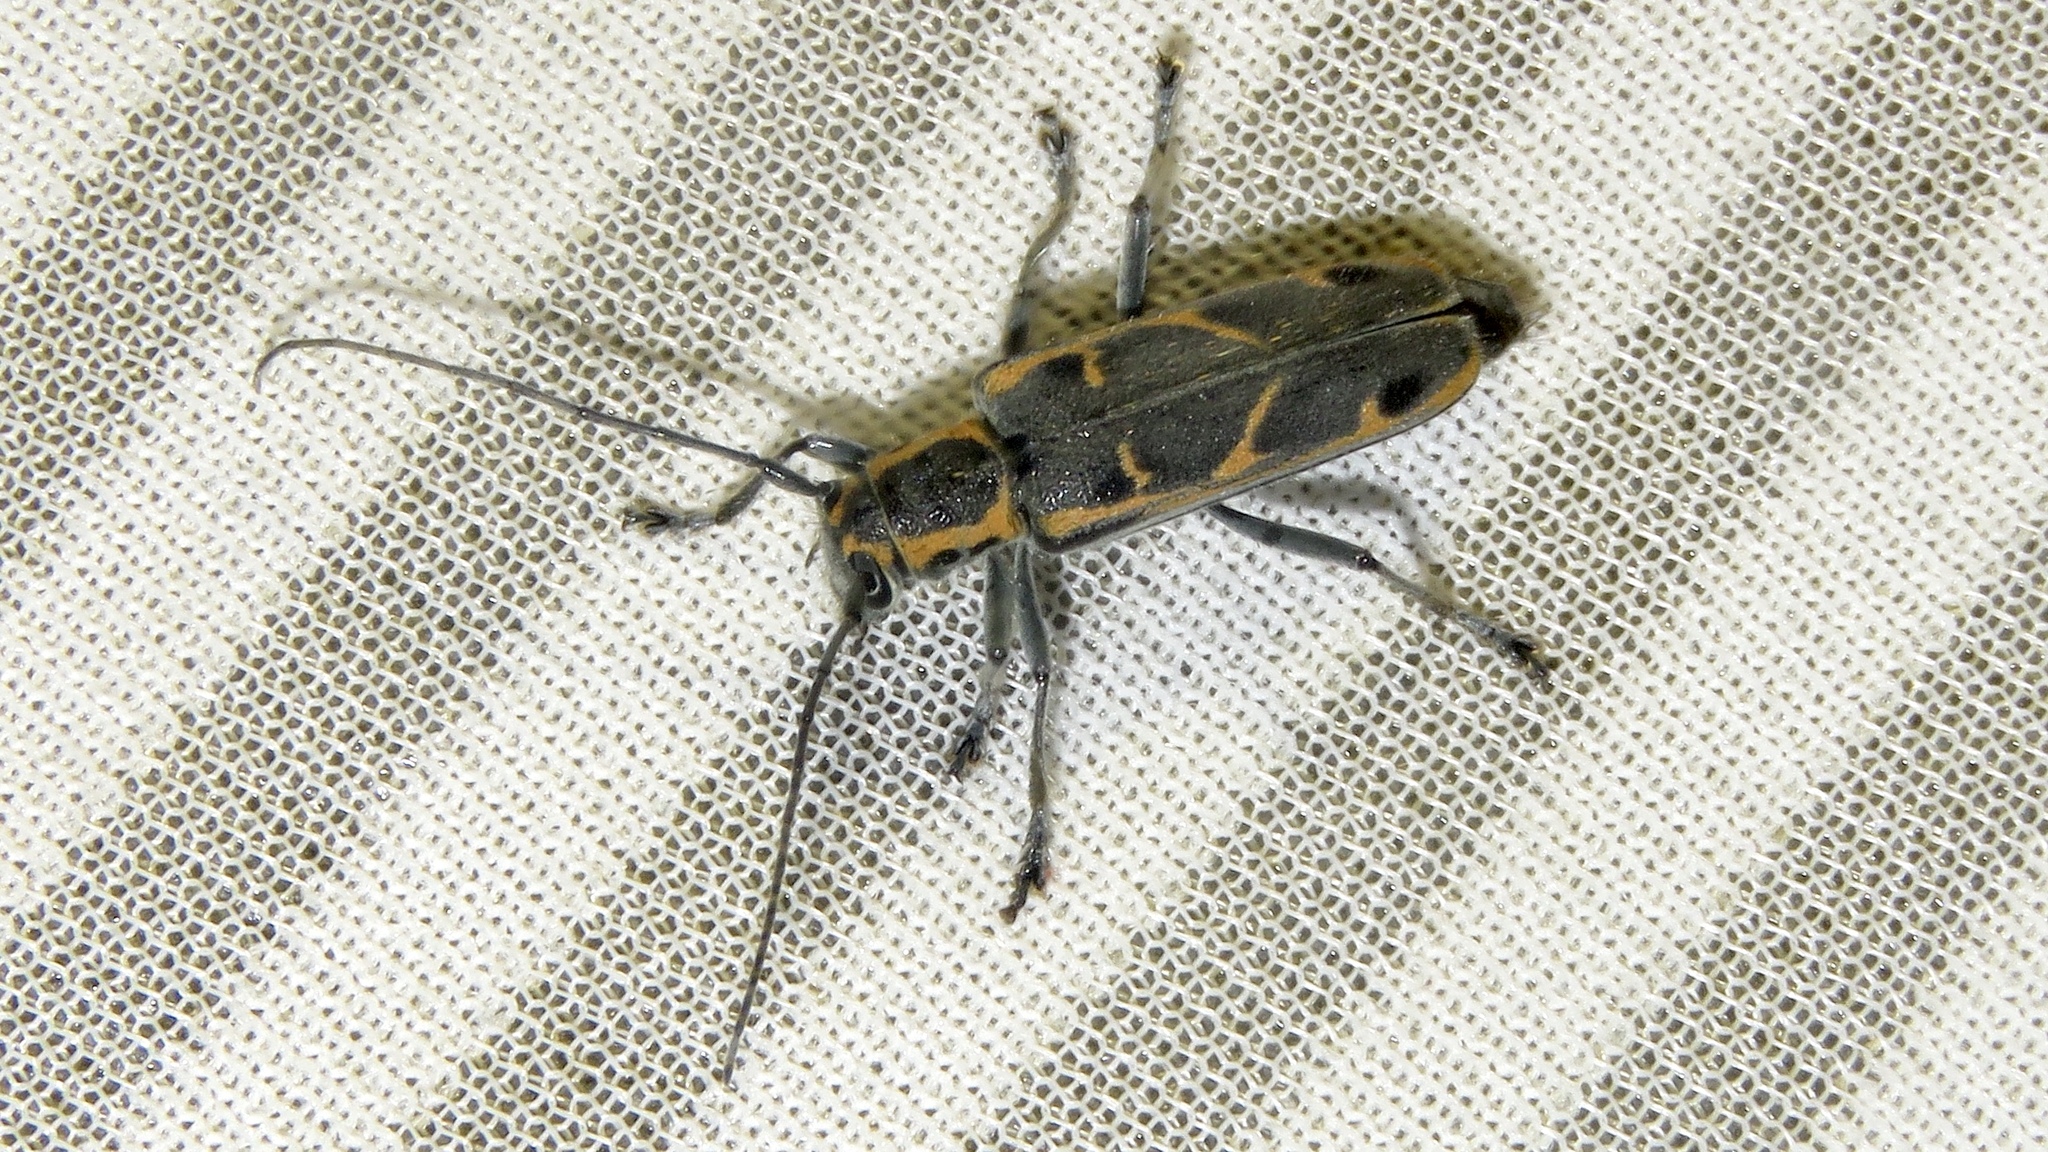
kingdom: Animalia
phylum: Arthropoda
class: Insecta
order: Coleoptera
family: Cerambycidae
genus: Saperda
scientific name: Saperda tridentata
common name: Elm borer
